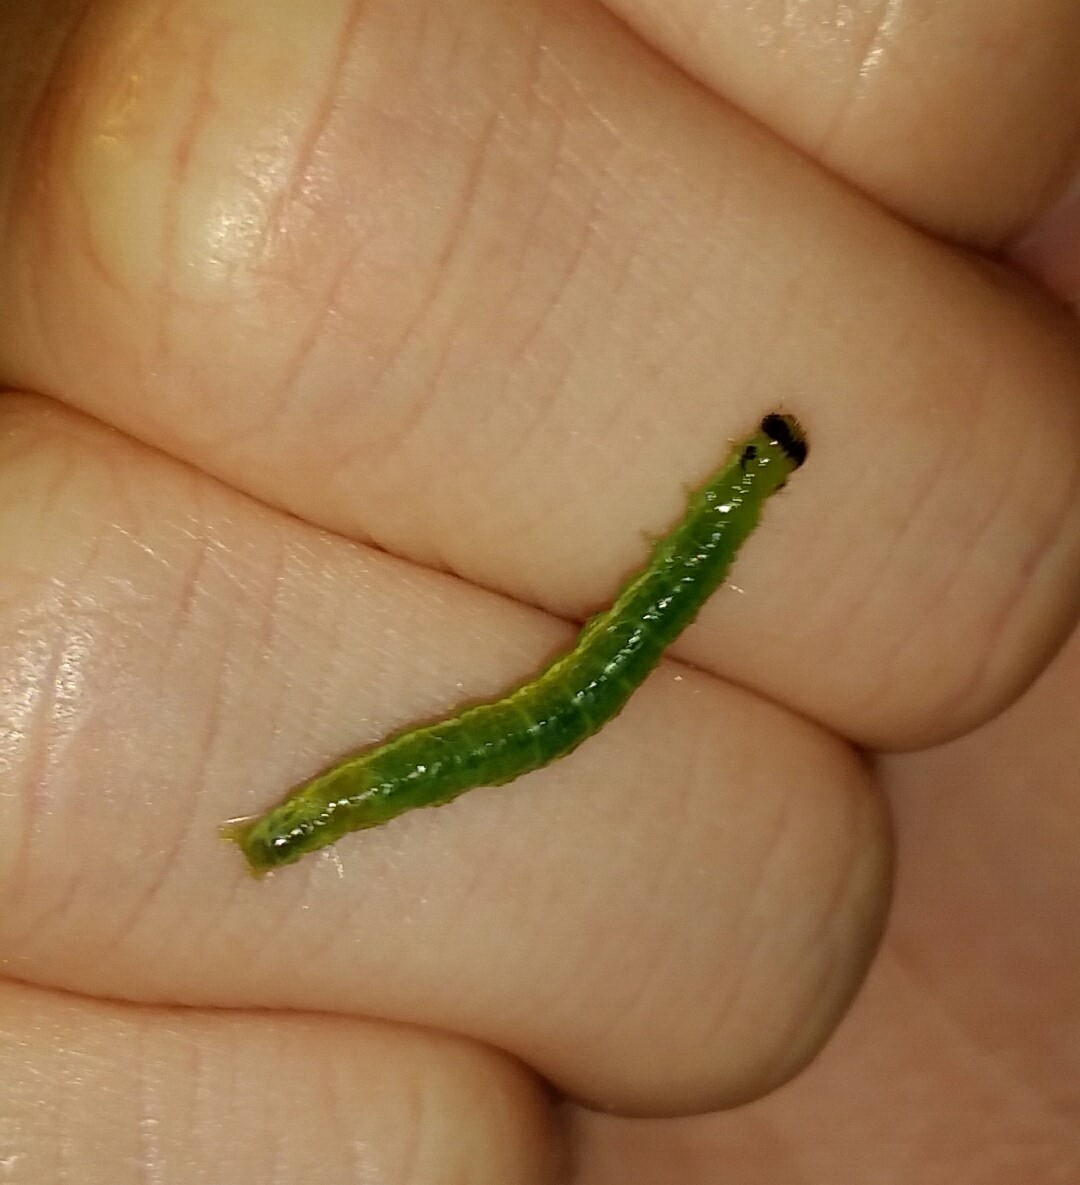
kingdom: Animalia
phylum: Arthropoda
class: Insecta
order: Lepidoptera
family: Crambidae
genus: Condylorrhiza
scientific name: Condylorrhiza vestigialis
